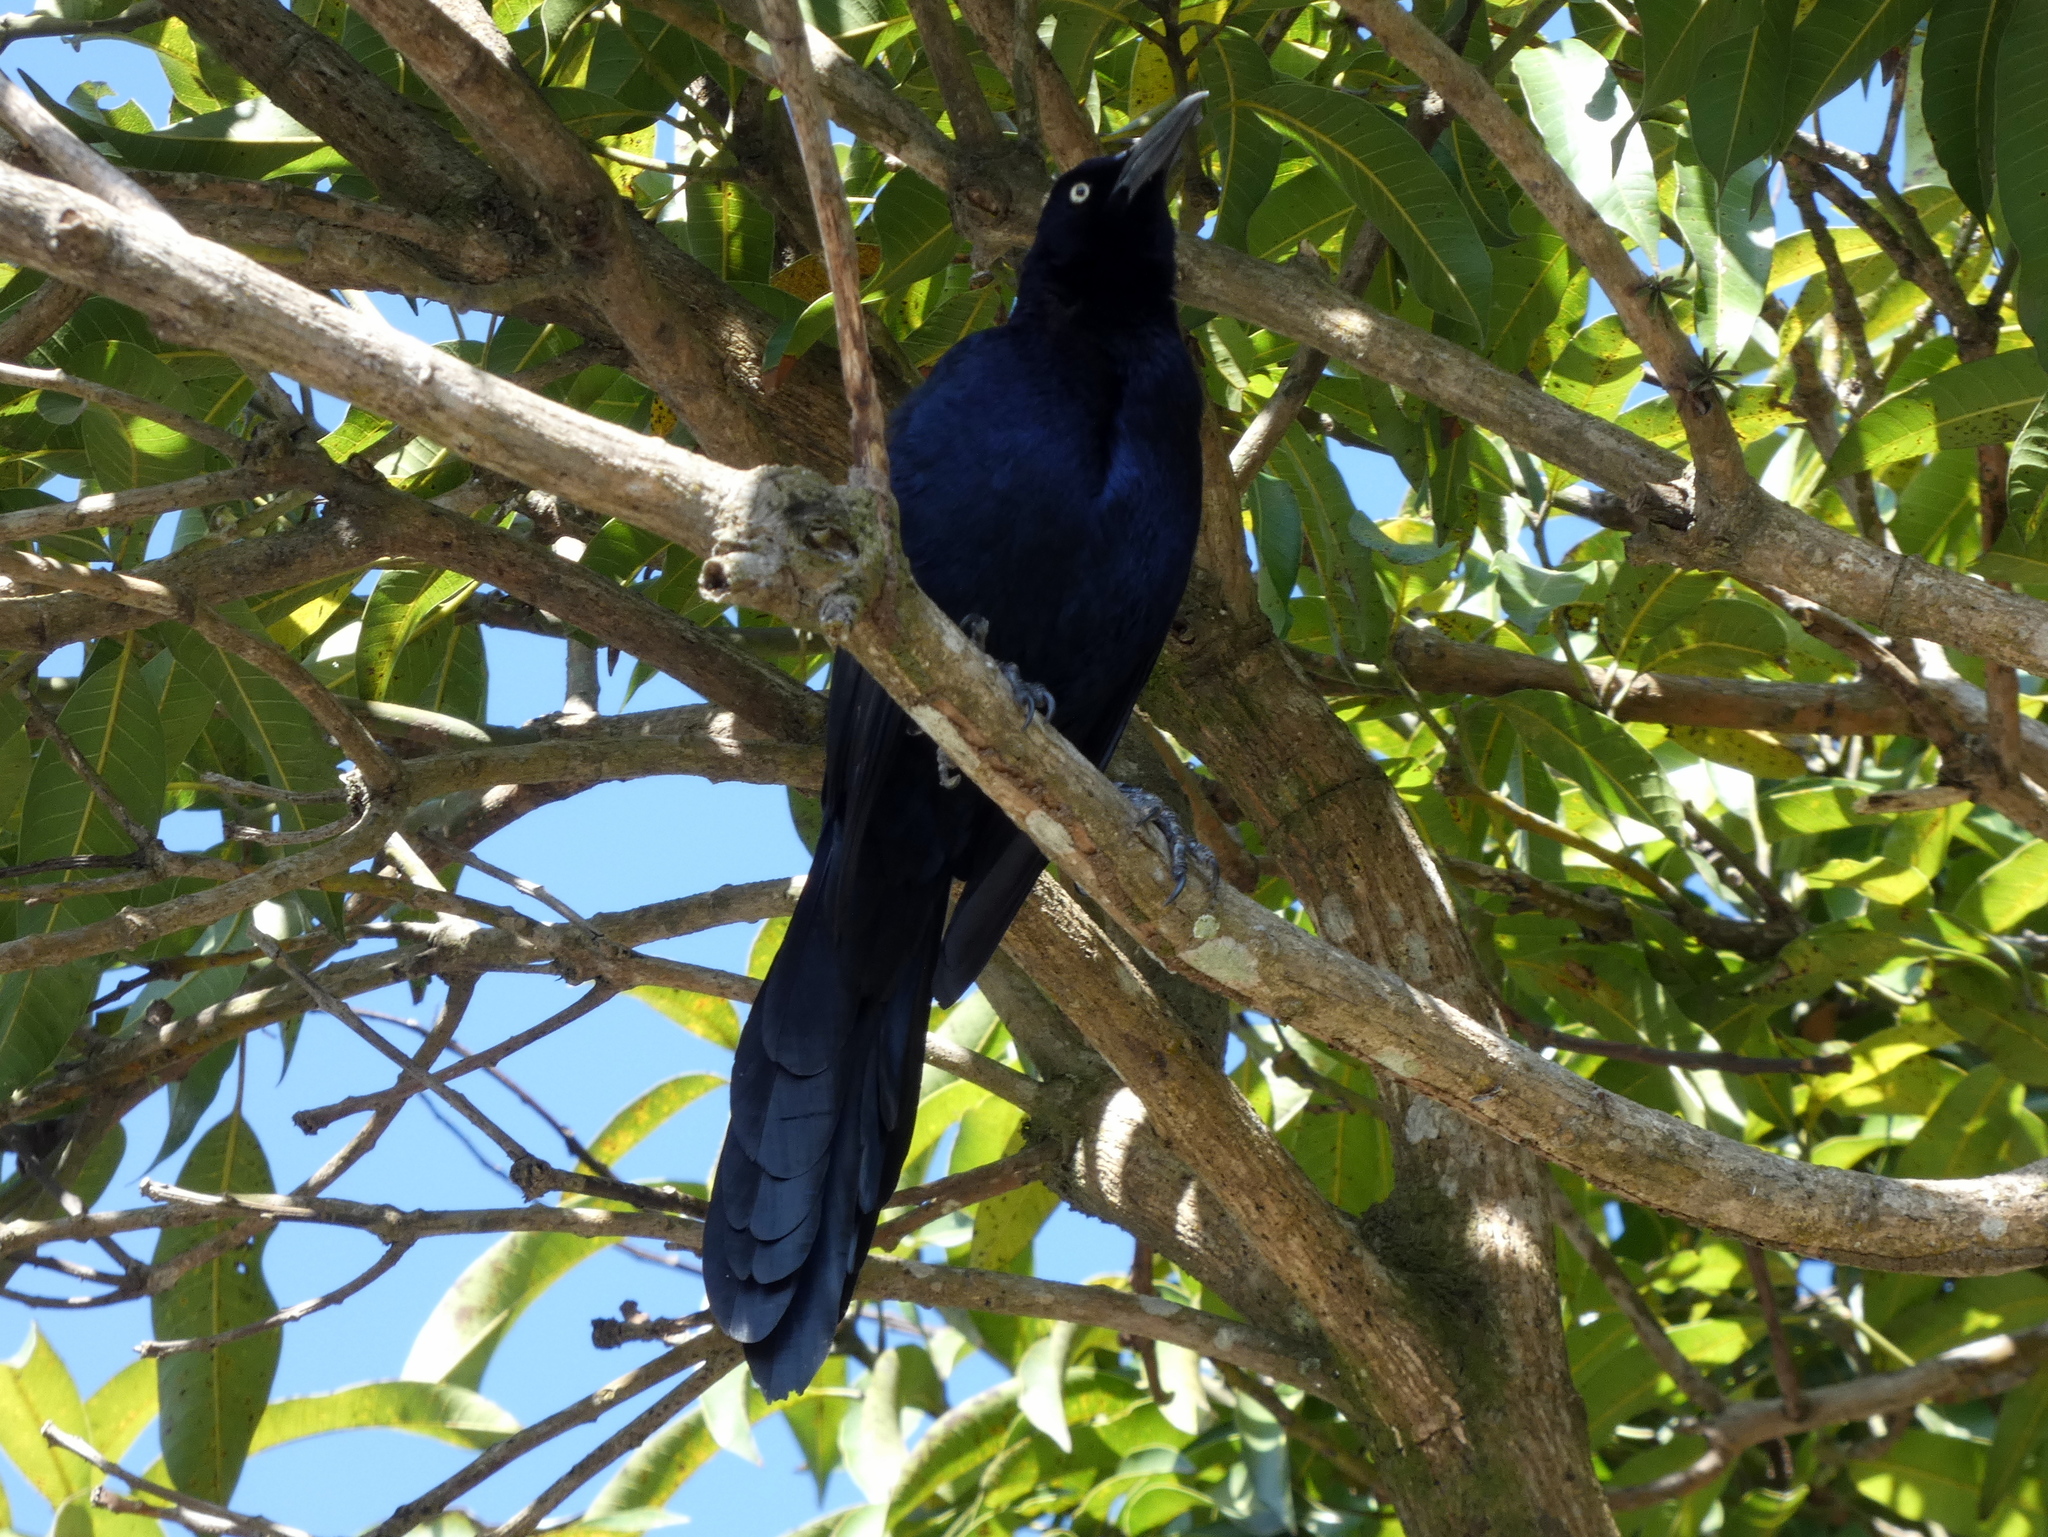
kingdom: Animalia
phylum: Chordata
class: Aves
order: Passeriformes
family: Icteridae
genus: Quiscalus
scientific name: Quiscalus mexicanus
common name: Great-tailed grackle
